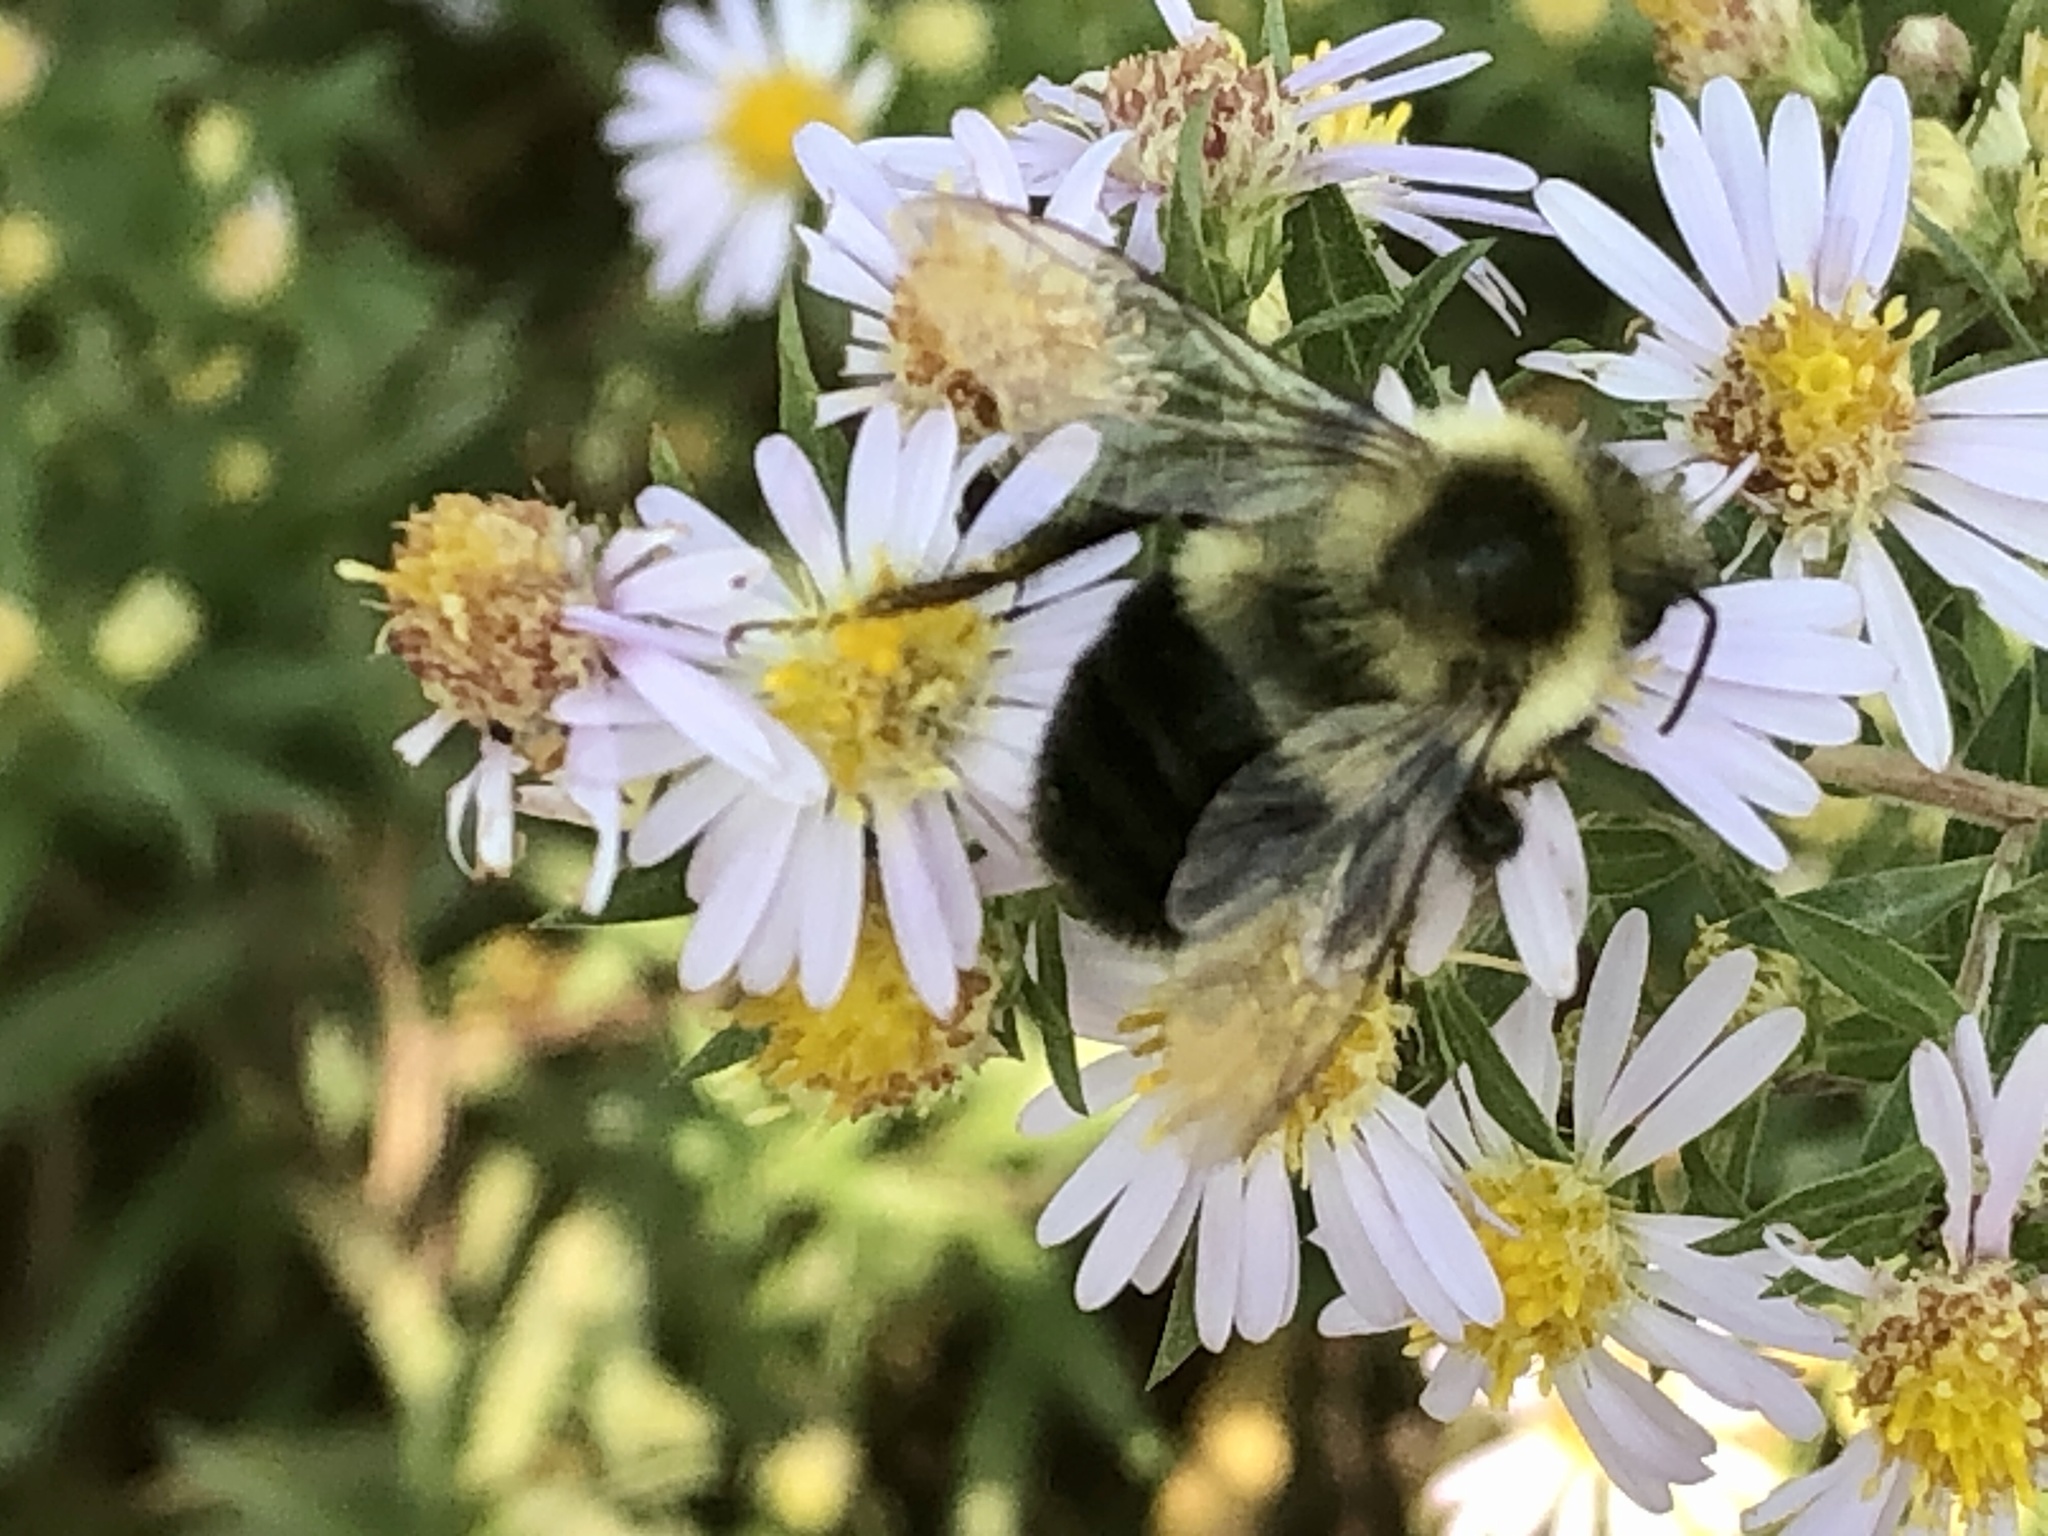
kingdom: Animalia
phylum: Arthropoda
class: Insecta
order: Hymenoptera
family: Apidae
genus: Bombus
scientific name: Bombus impatiens
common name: Common eastern bumble bee
